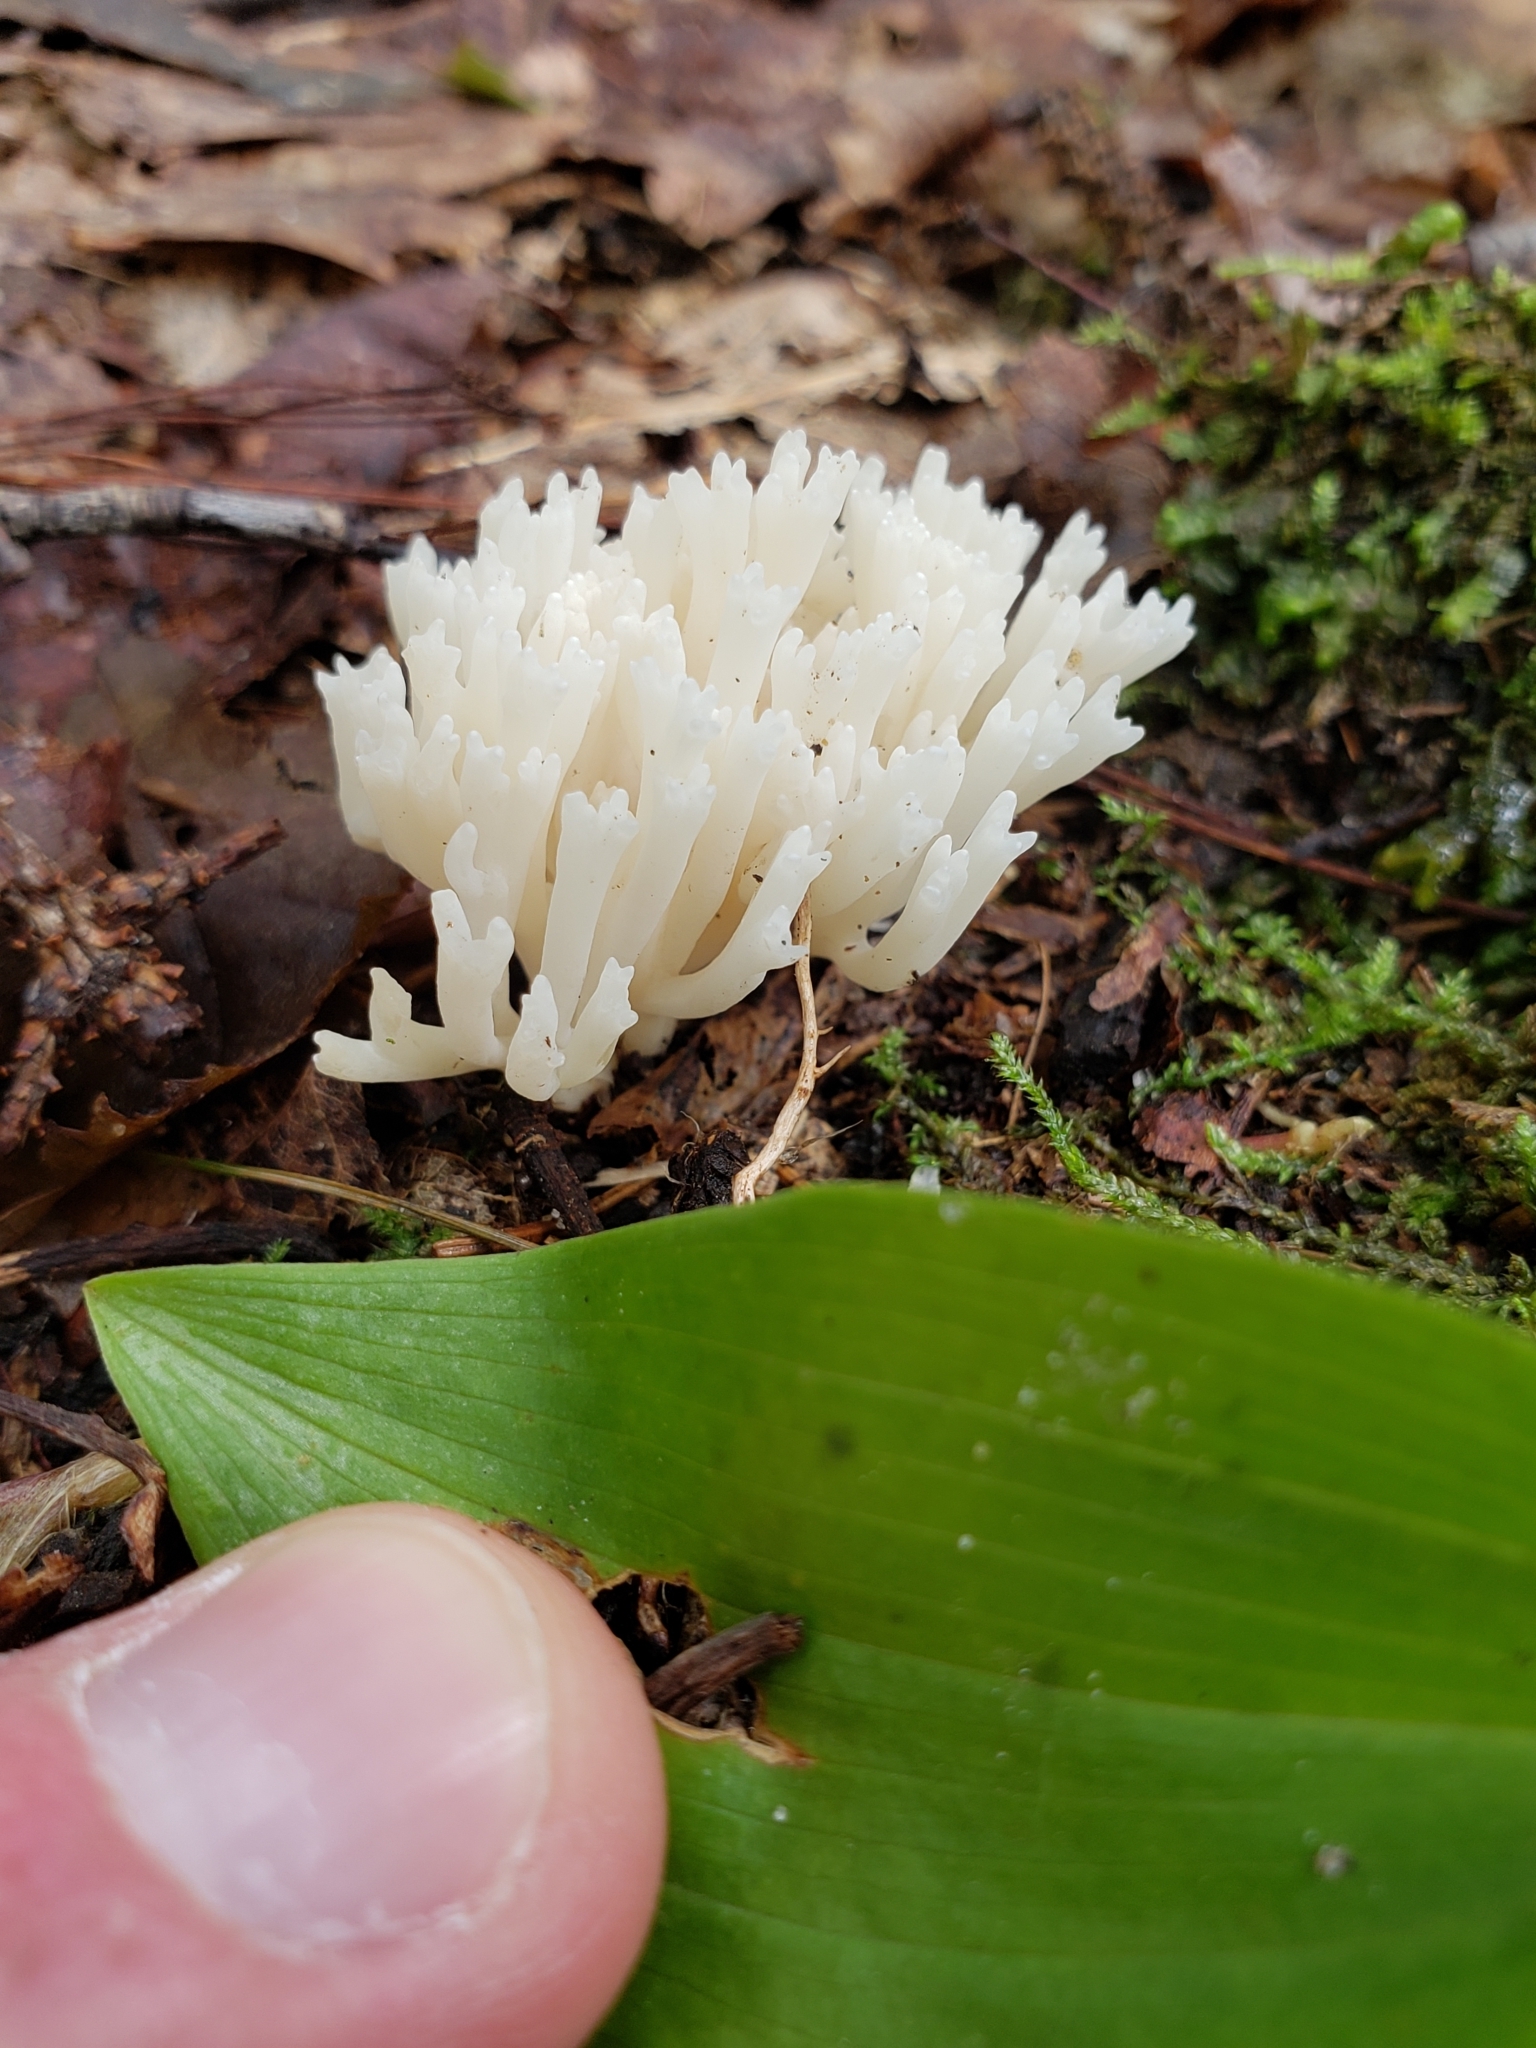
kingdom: Fungi
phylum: Basidiomycota
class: Agaricomycetes
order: Agaricales
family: Clavariaceae
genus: Ramariopsis
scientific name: Ramariopsis kunzei
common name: Ivory coral
